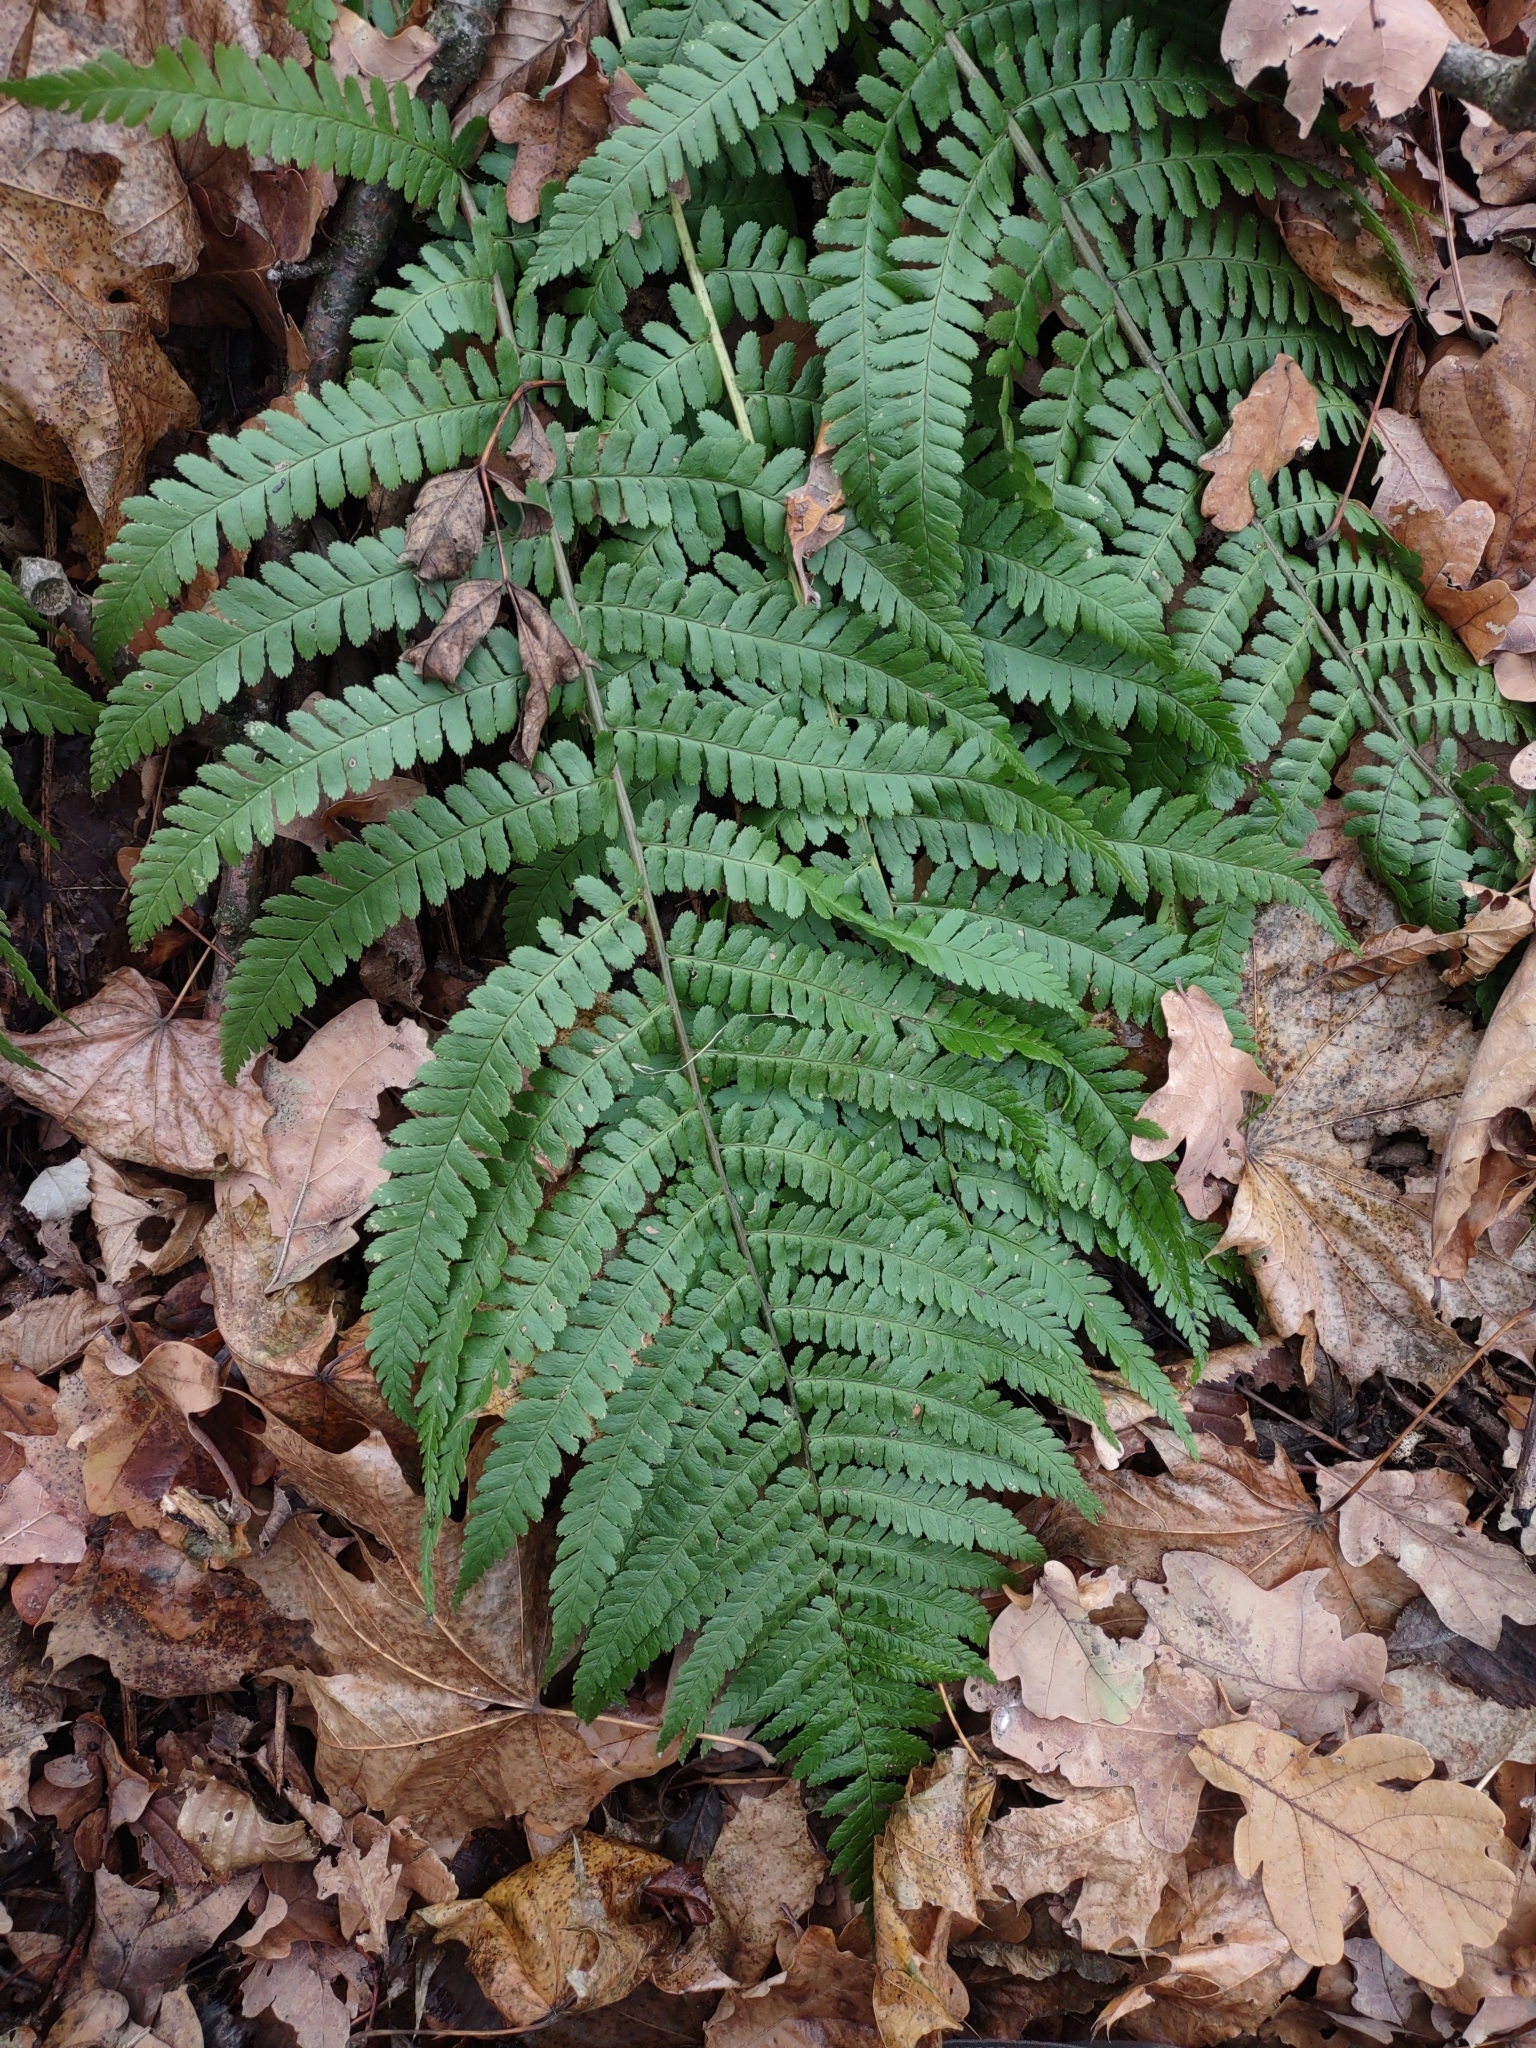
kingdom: Plantae
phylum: Tracheophyta
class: Polypodiopsida
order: Polypodiales
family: Dryopteridaceae
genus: Dryopteris
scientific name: Dryopteris filix-mas
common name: Male fern
